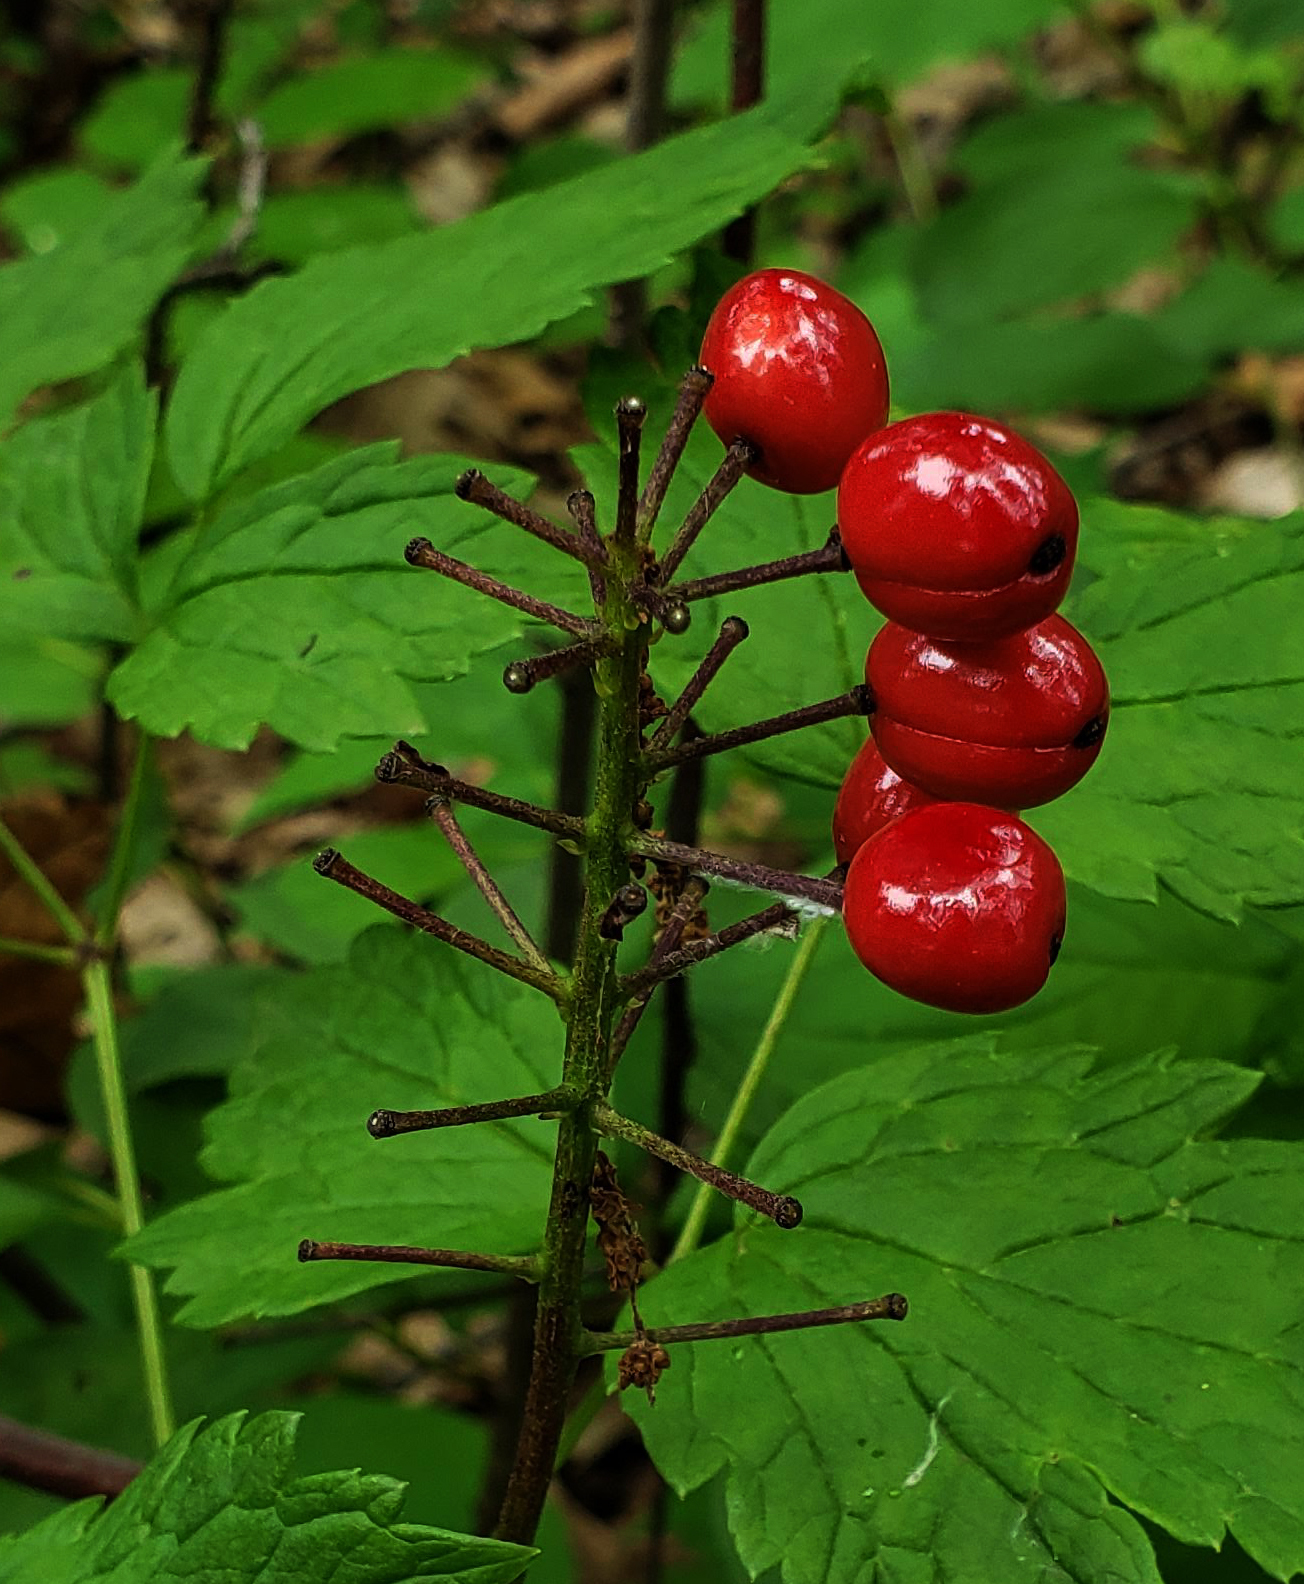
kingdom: Plantae
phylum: Tracheophyta
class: Magnoliopsida
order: Ranunculales
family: Ranunculaceae
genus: Actaea
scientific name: Actaea rubra
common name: Red baneberry
